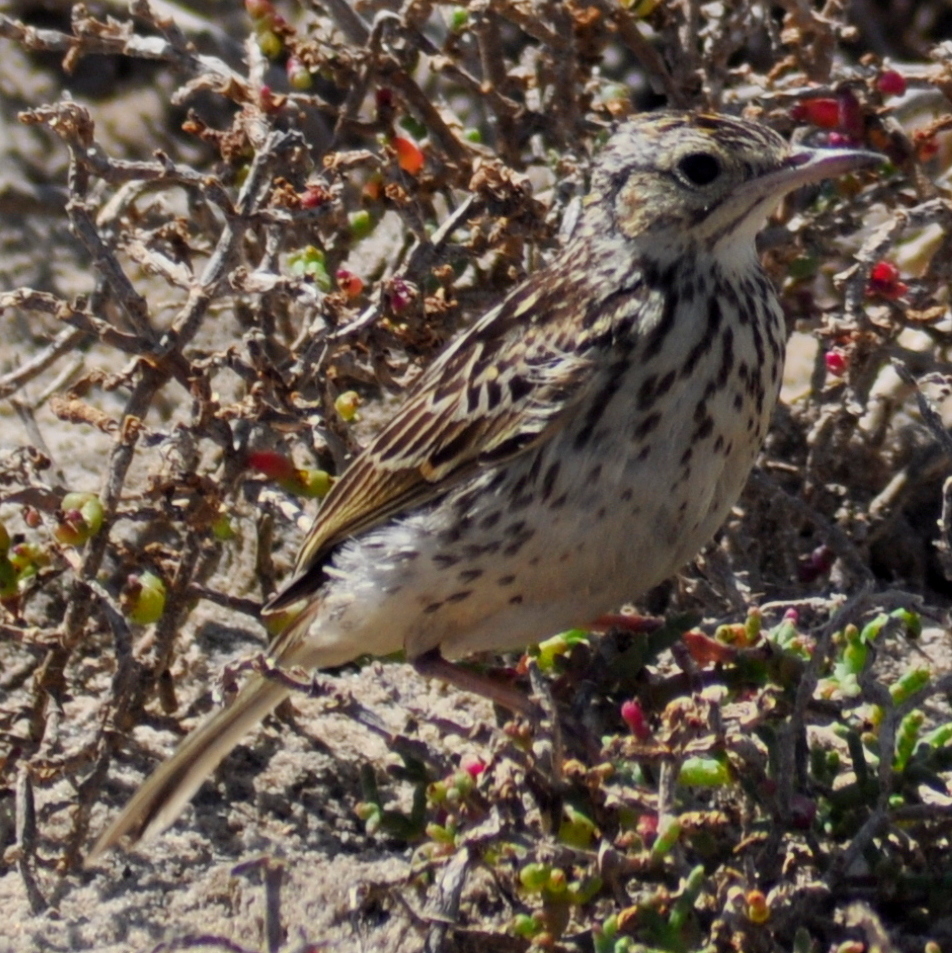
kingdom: Animalia
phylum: Chordata
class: Aves
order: Passeriformes
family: Motacillidae
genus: Anthus
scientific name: Anthus correndera
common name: Correndera pipit
